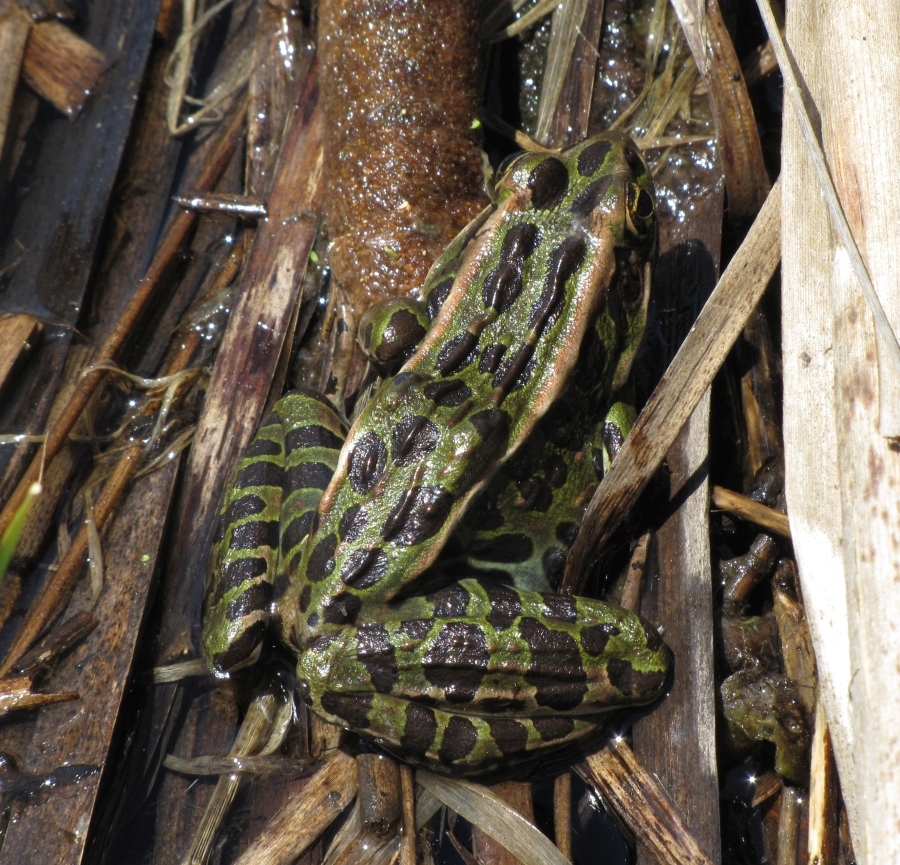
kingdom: Animalia
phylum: Chordata
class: Amphibia
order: Anura
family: Ranidae
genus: Lithobates
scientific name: Lithobates pipiens
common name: Northern leopard frog
